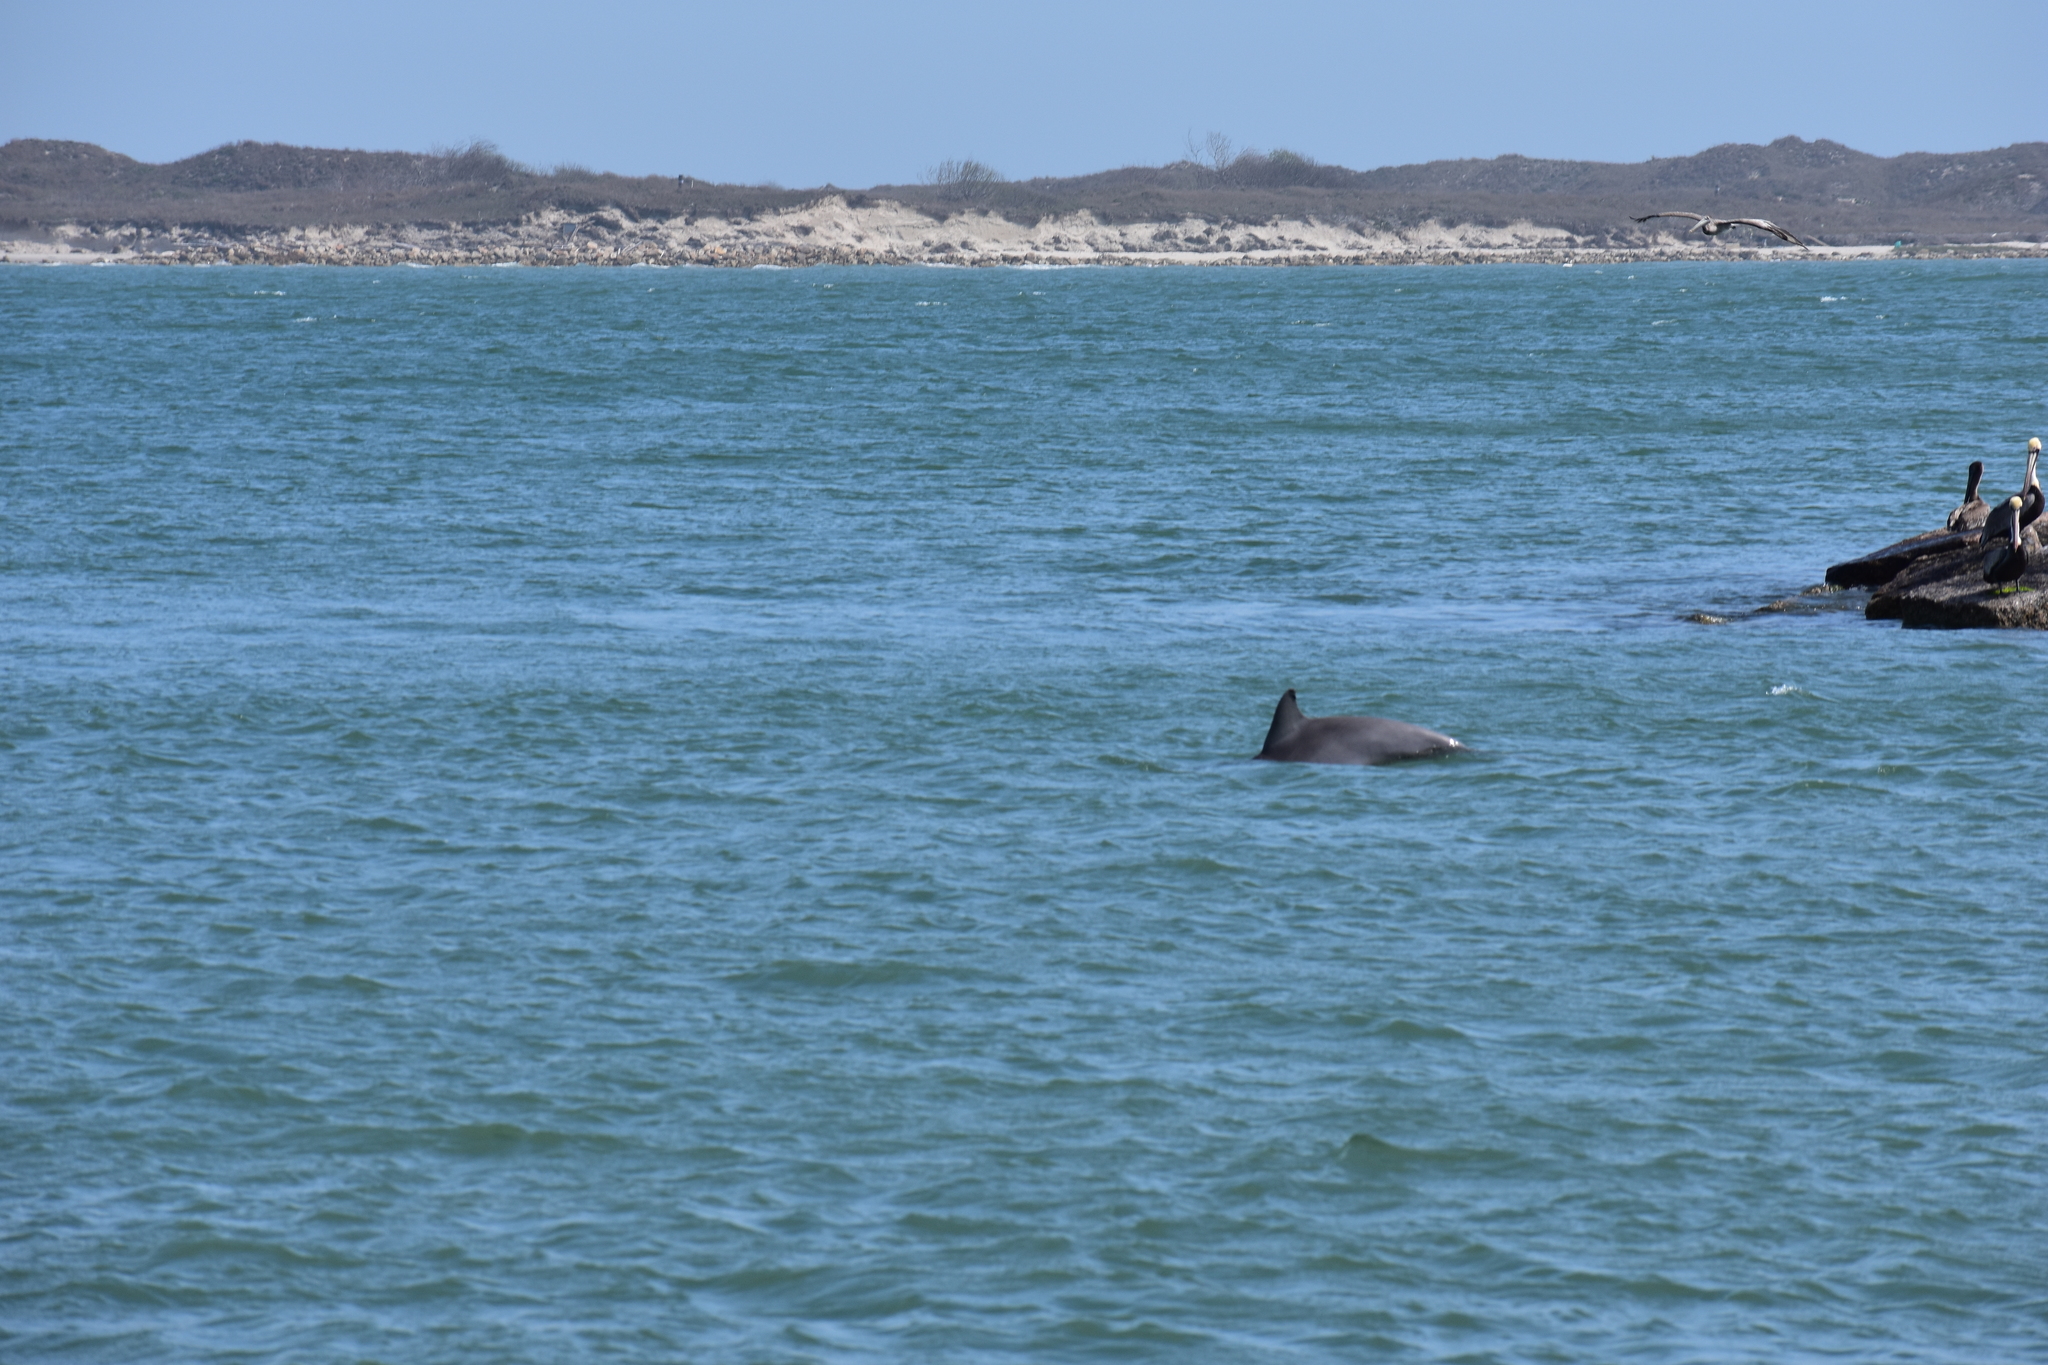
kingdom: Animalia
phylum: Chordata
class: Mammalia
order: Cetacea
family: Delphinidae
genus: Tursiops
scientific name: Tursiops truncatus
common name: Bottlenose dolphin
